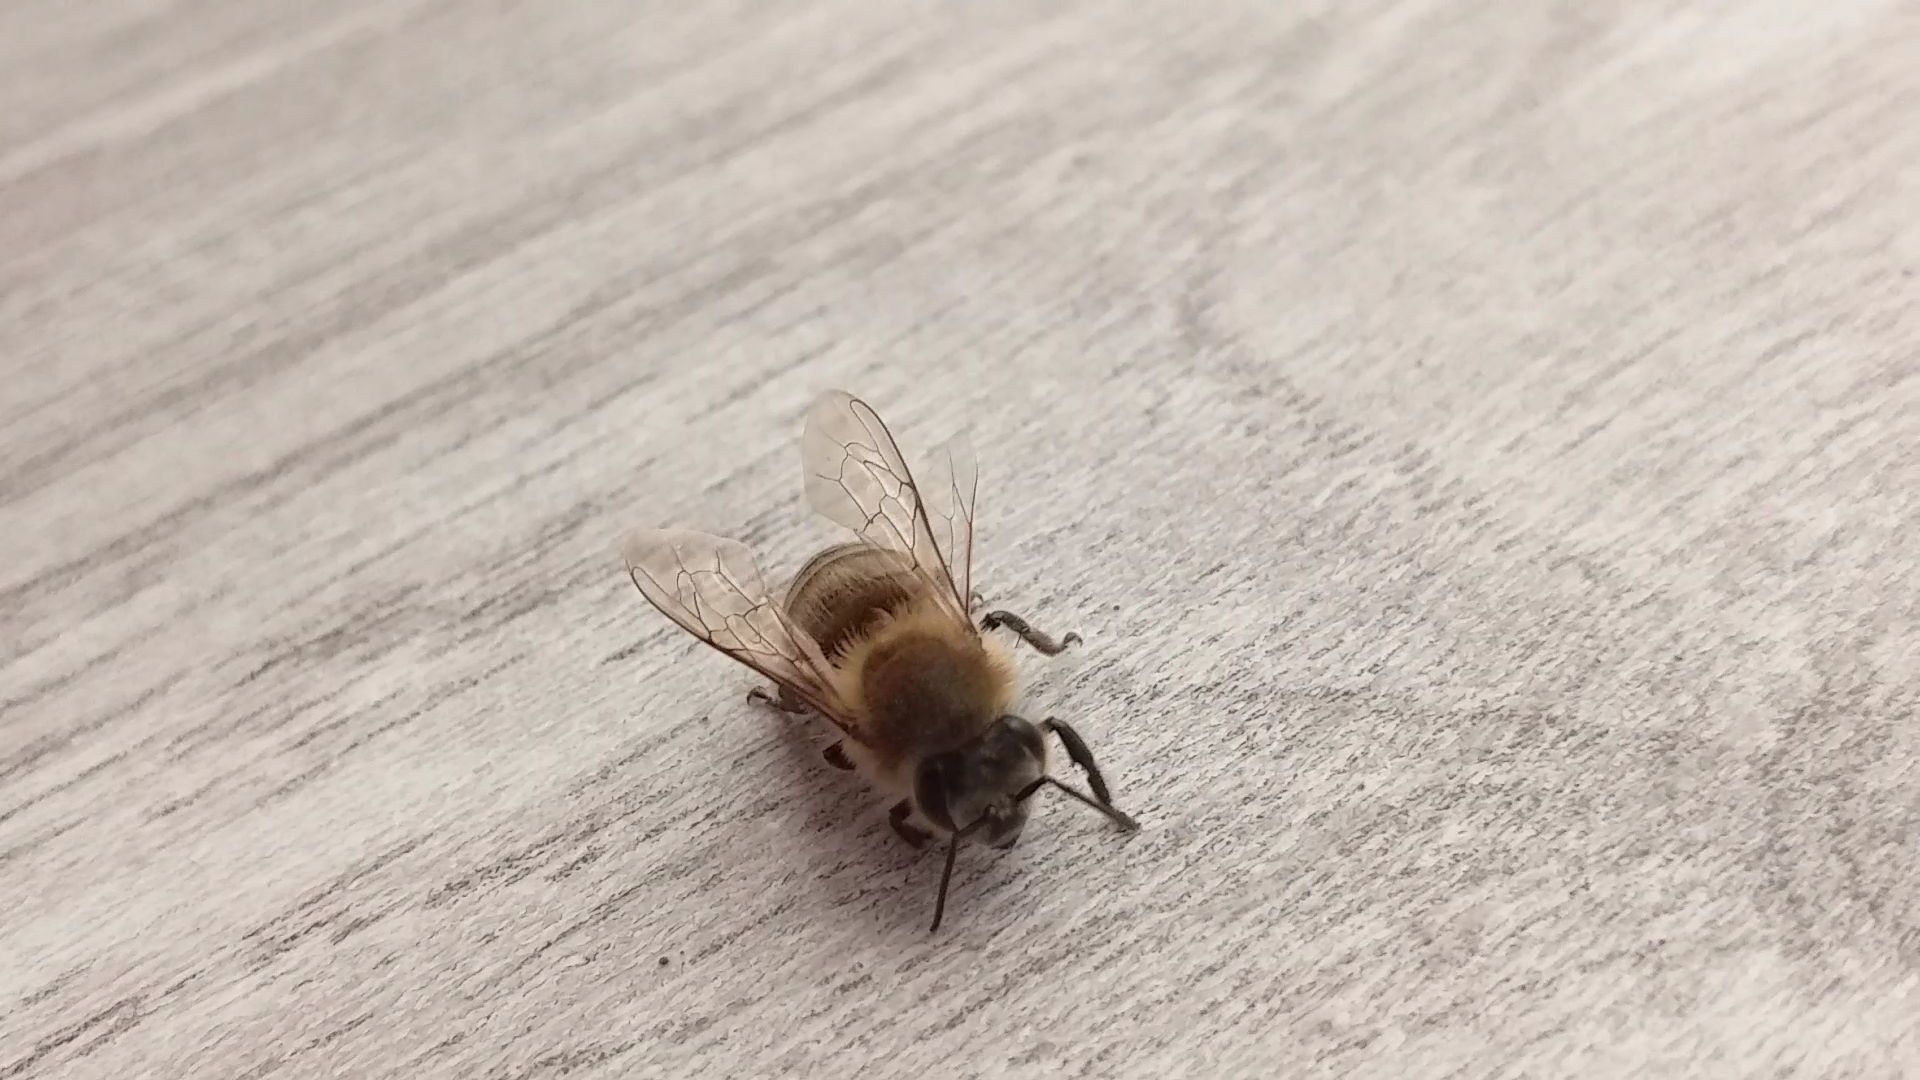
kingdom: Animalia
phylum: Arthropoda
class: Insecta
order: Hymenoptera
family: Apidae
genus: Apis
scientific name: Apis mellifera
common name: Honey bee
